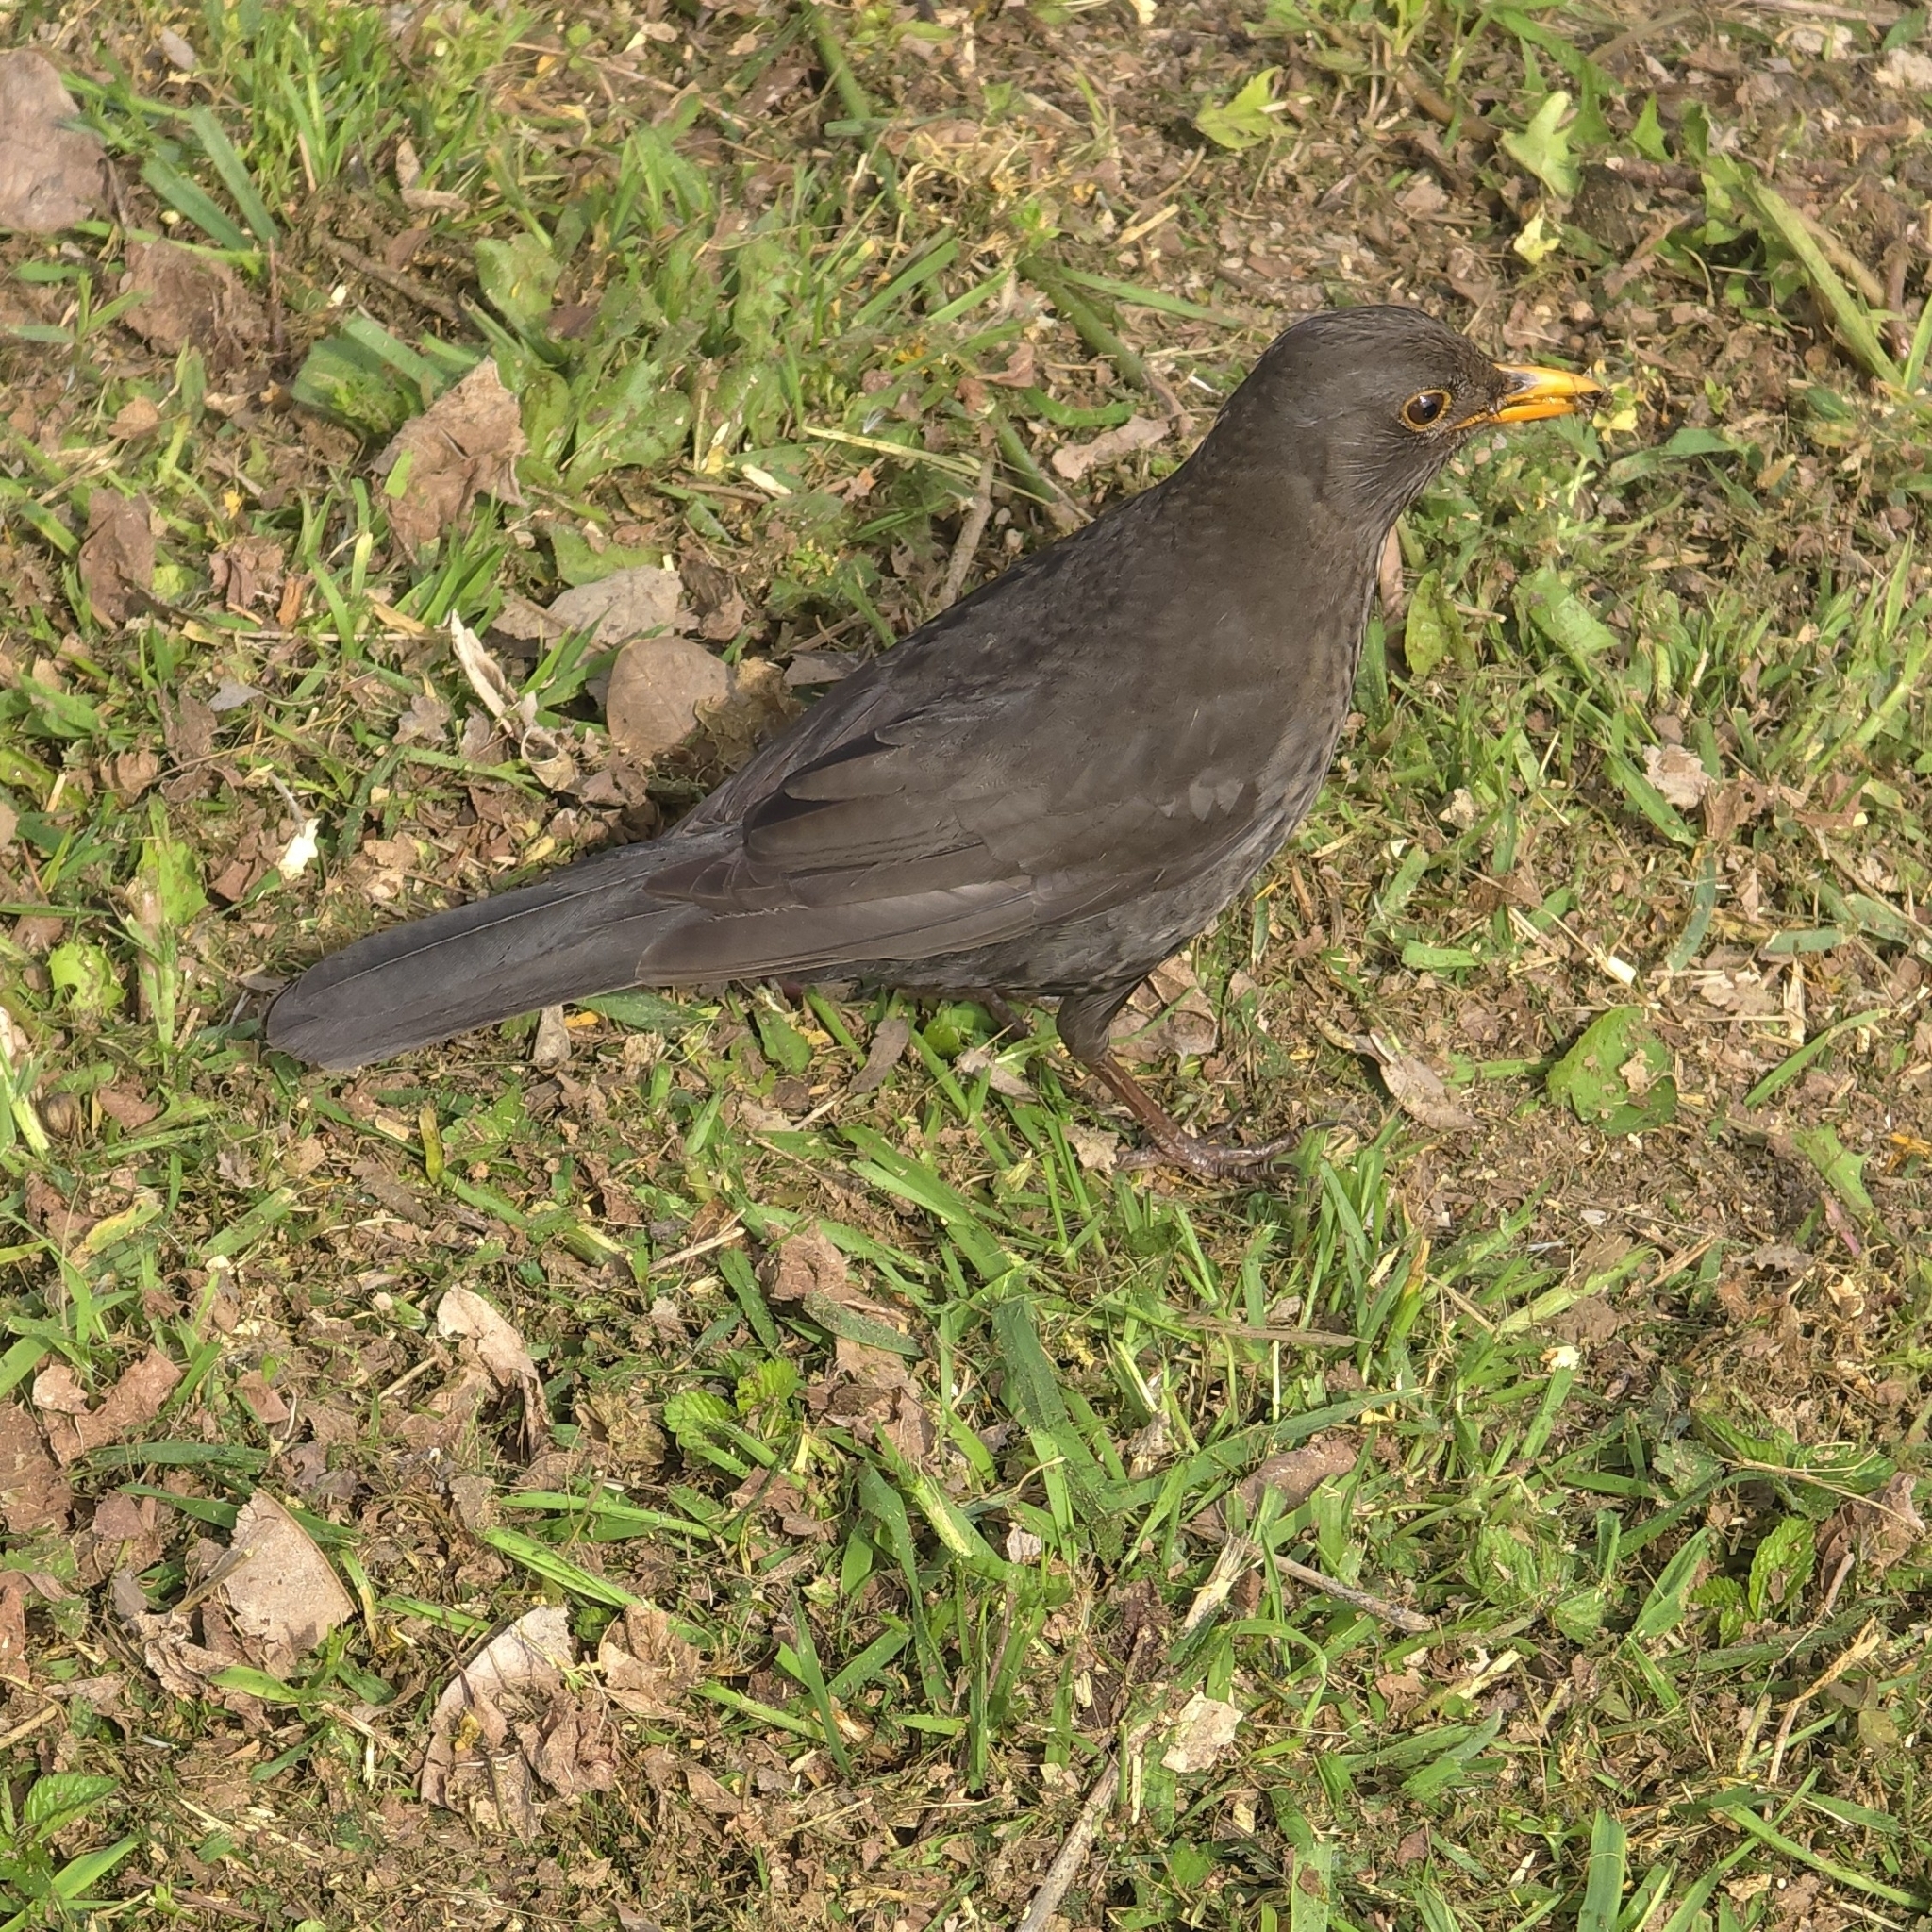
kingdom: Animalia
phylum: Chordata
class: Aves
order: Passeriformes
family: Turdidae
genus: Turdus
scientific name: Turdus merula
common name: Common blackbird
